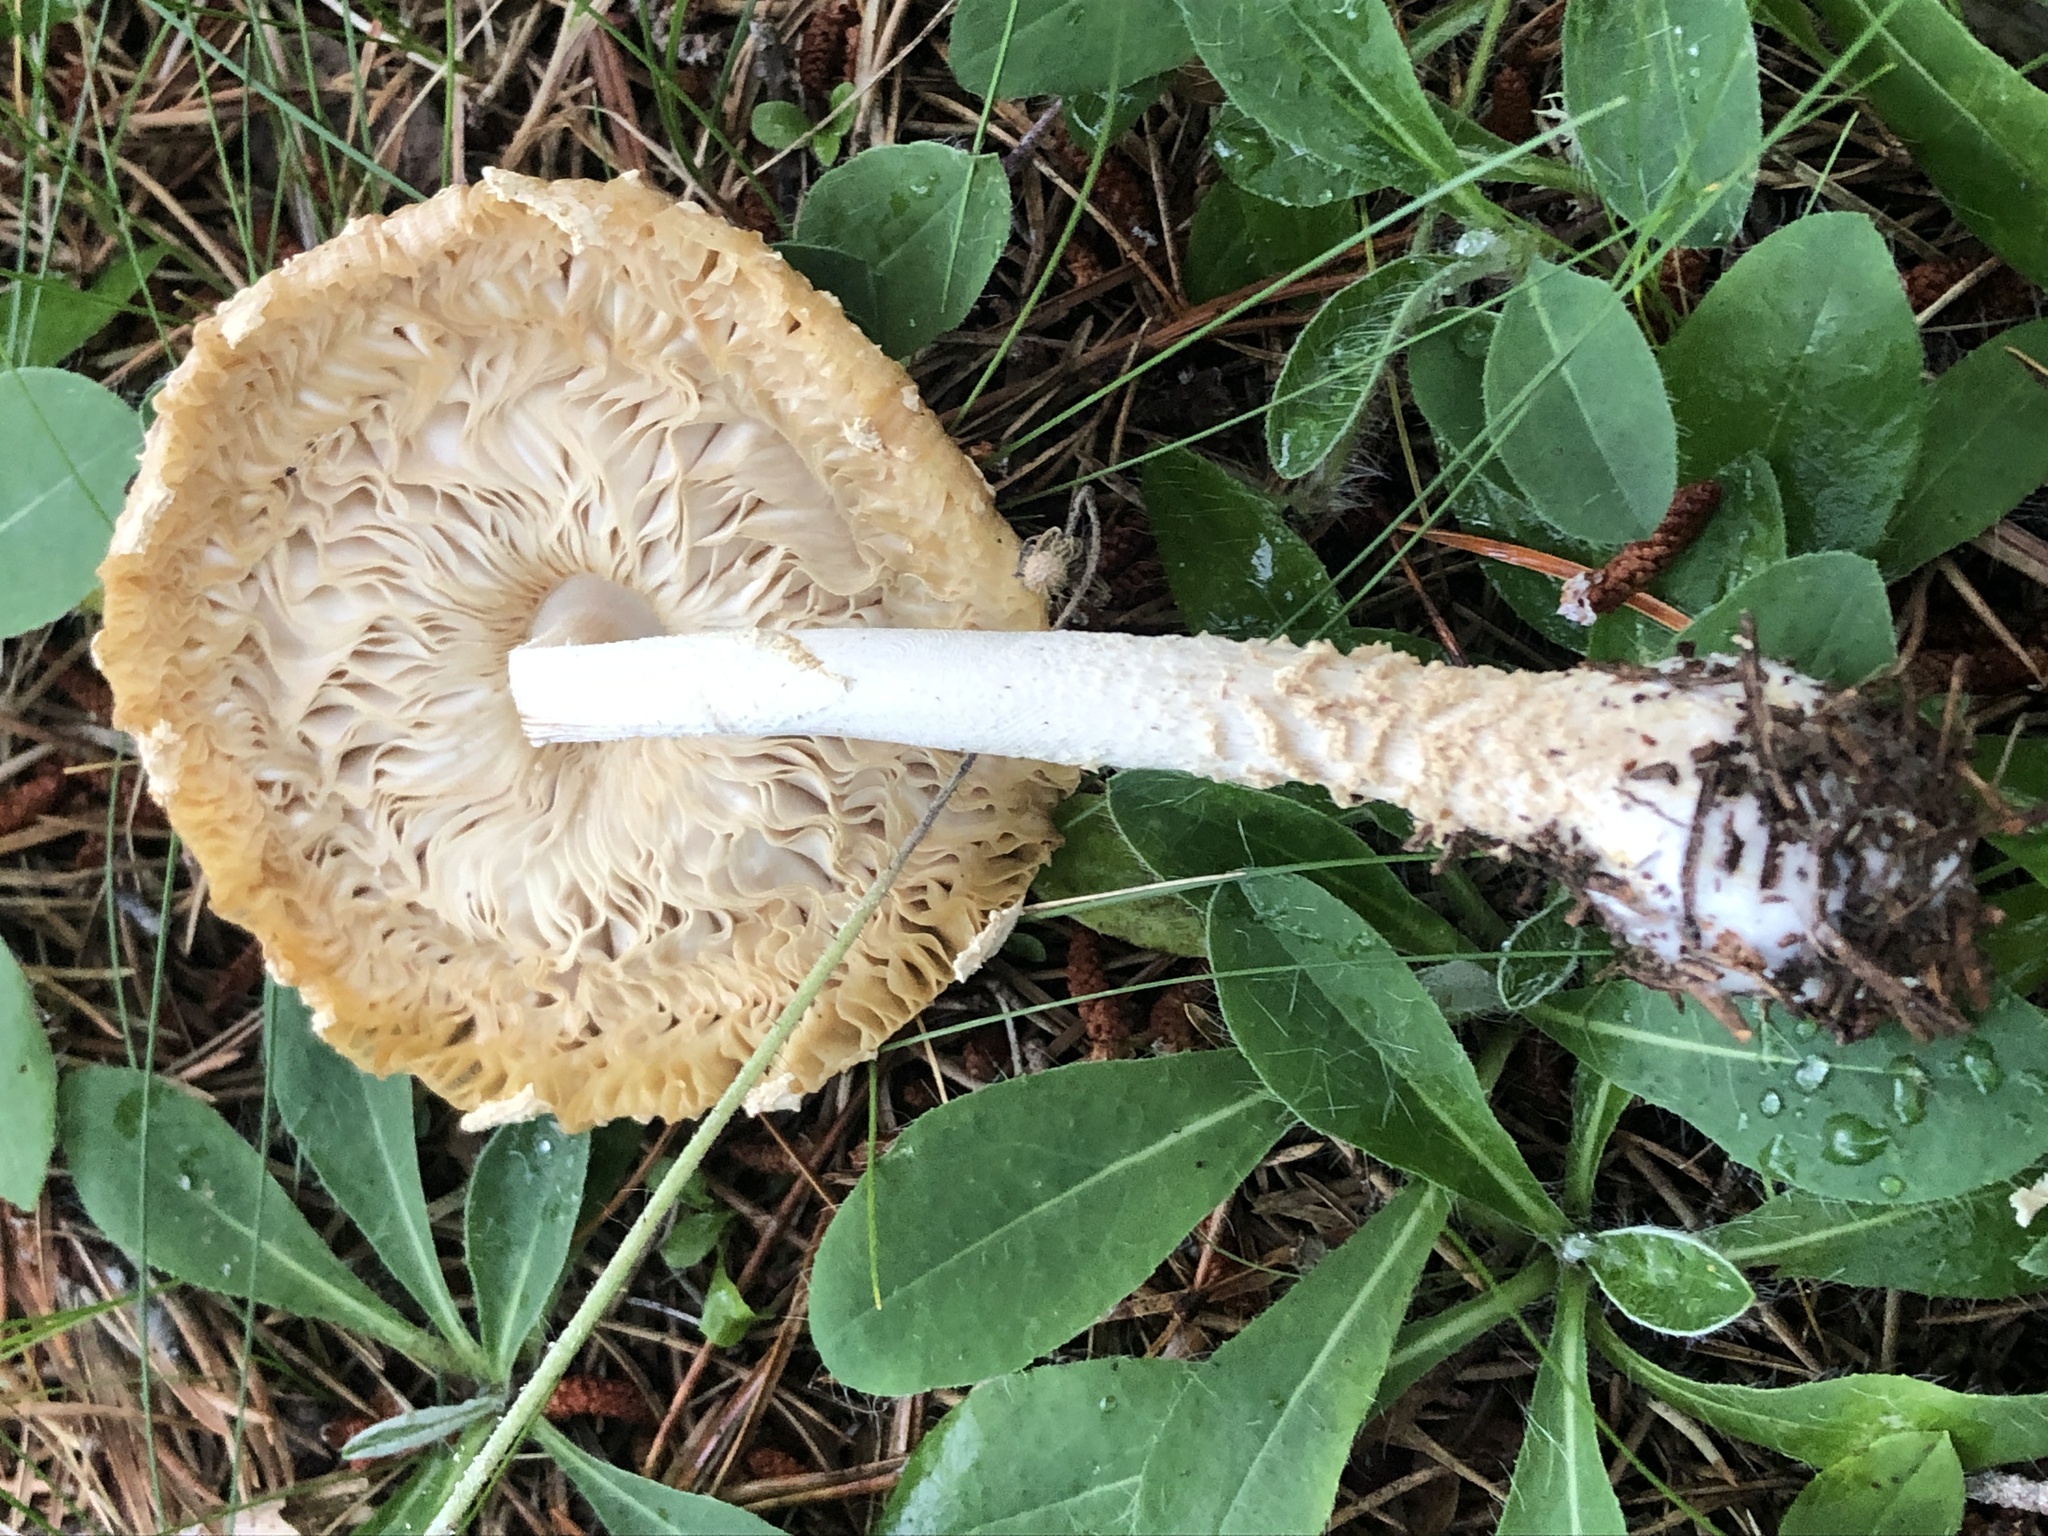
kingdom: Fungi
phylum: Basidiomycota
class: Agaricomycetes
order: Agaricales
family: Amanitaceae
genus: Amanita
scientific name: Amanita muscaria
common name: Fly agaric
